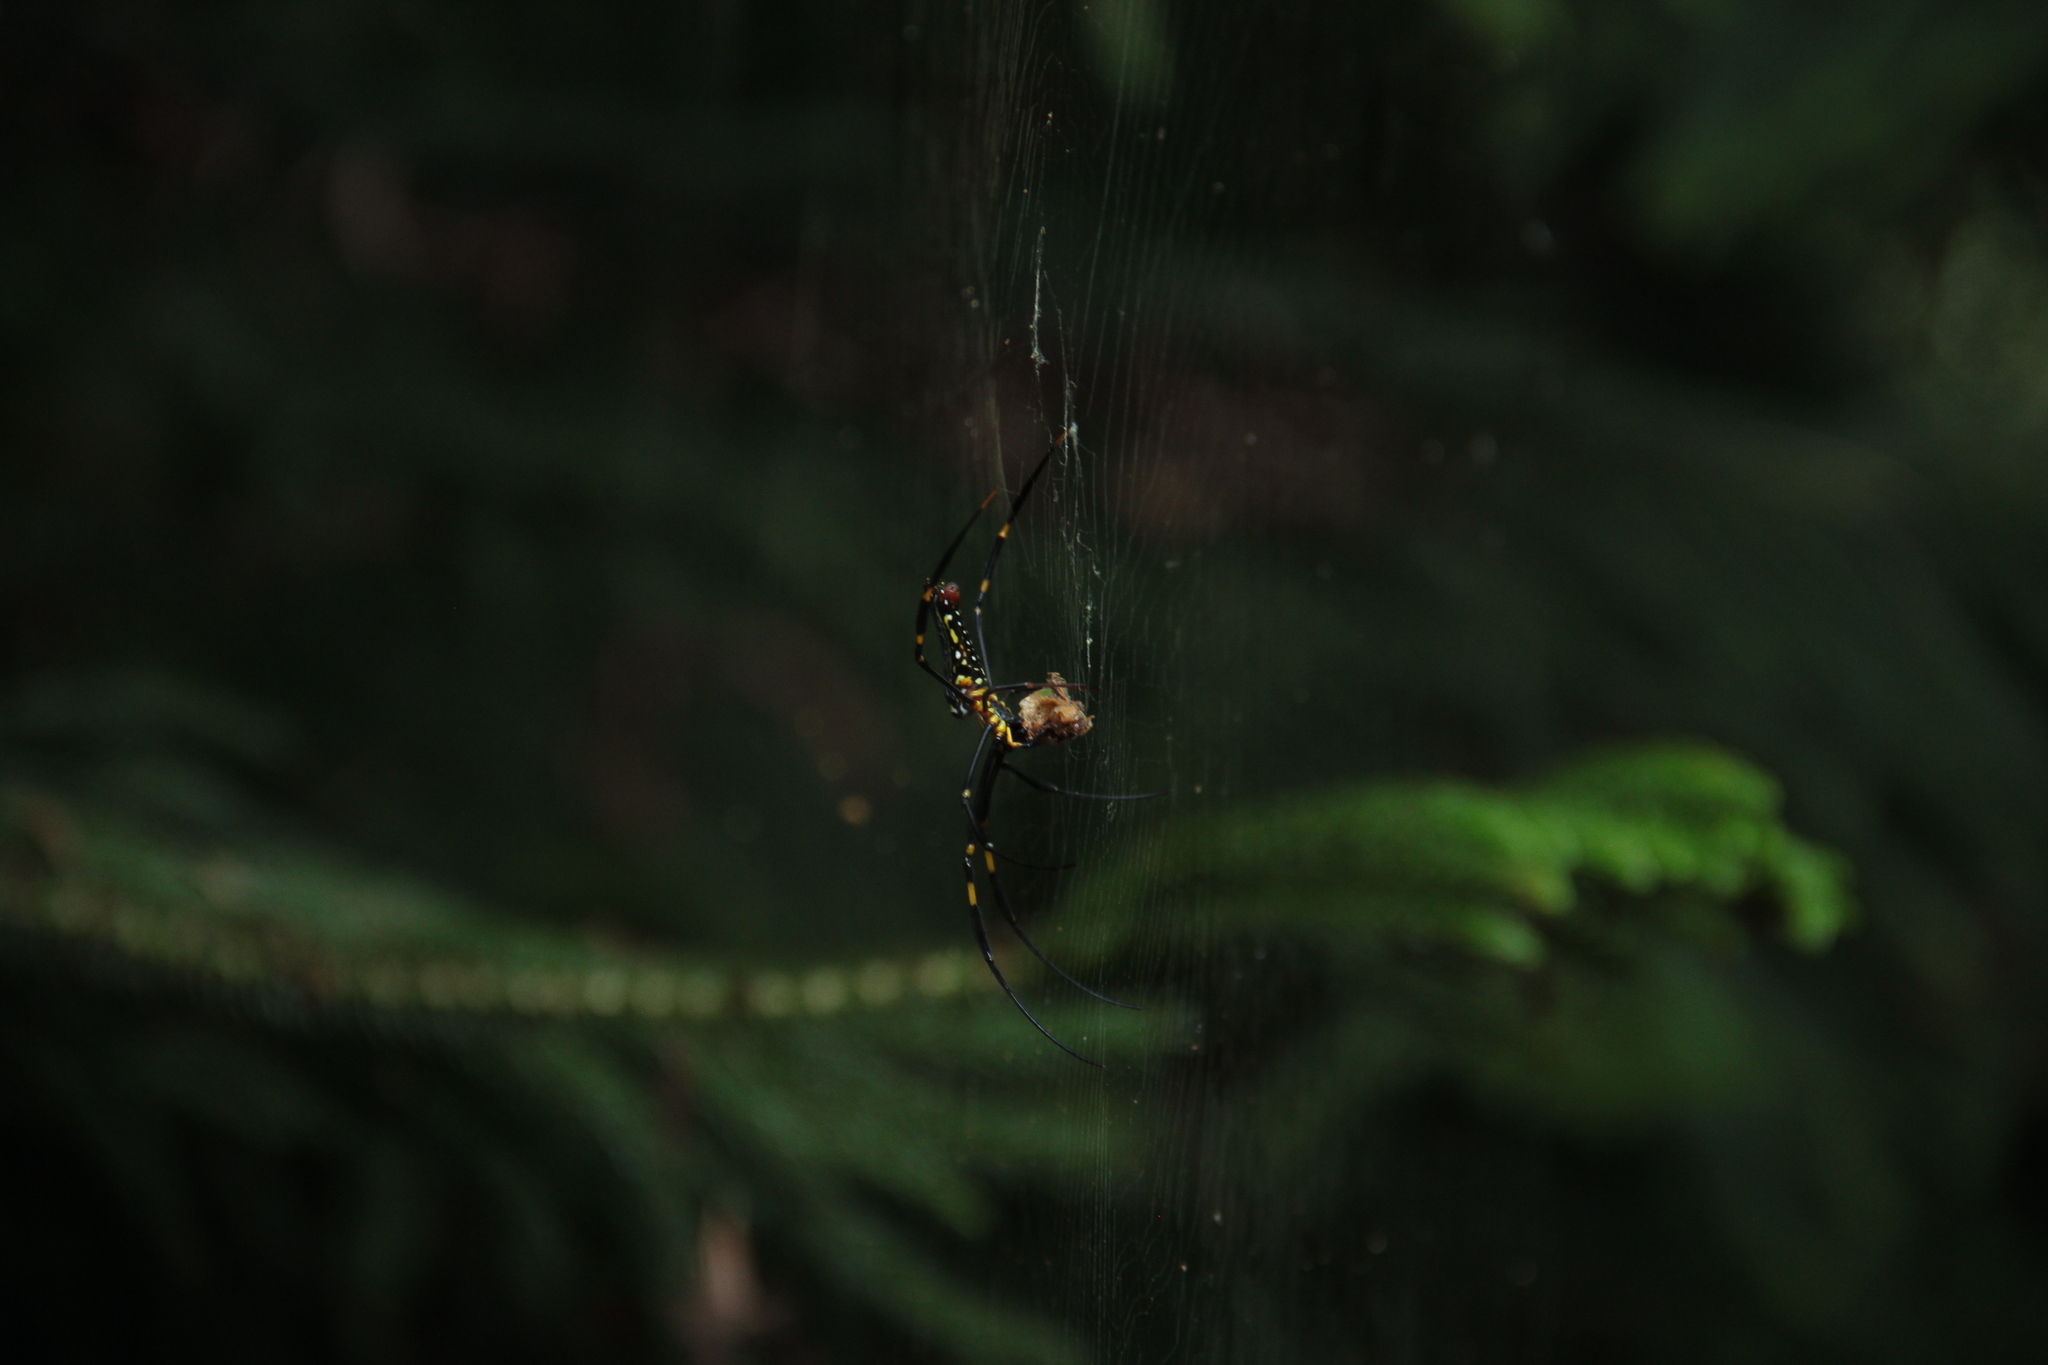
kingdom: Animalia
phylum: Arthropoda
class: Arachnida
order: Araneae
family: Araneidae
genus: Nephila
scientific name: Nephila pilipes
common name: Giant golden orb weaver
